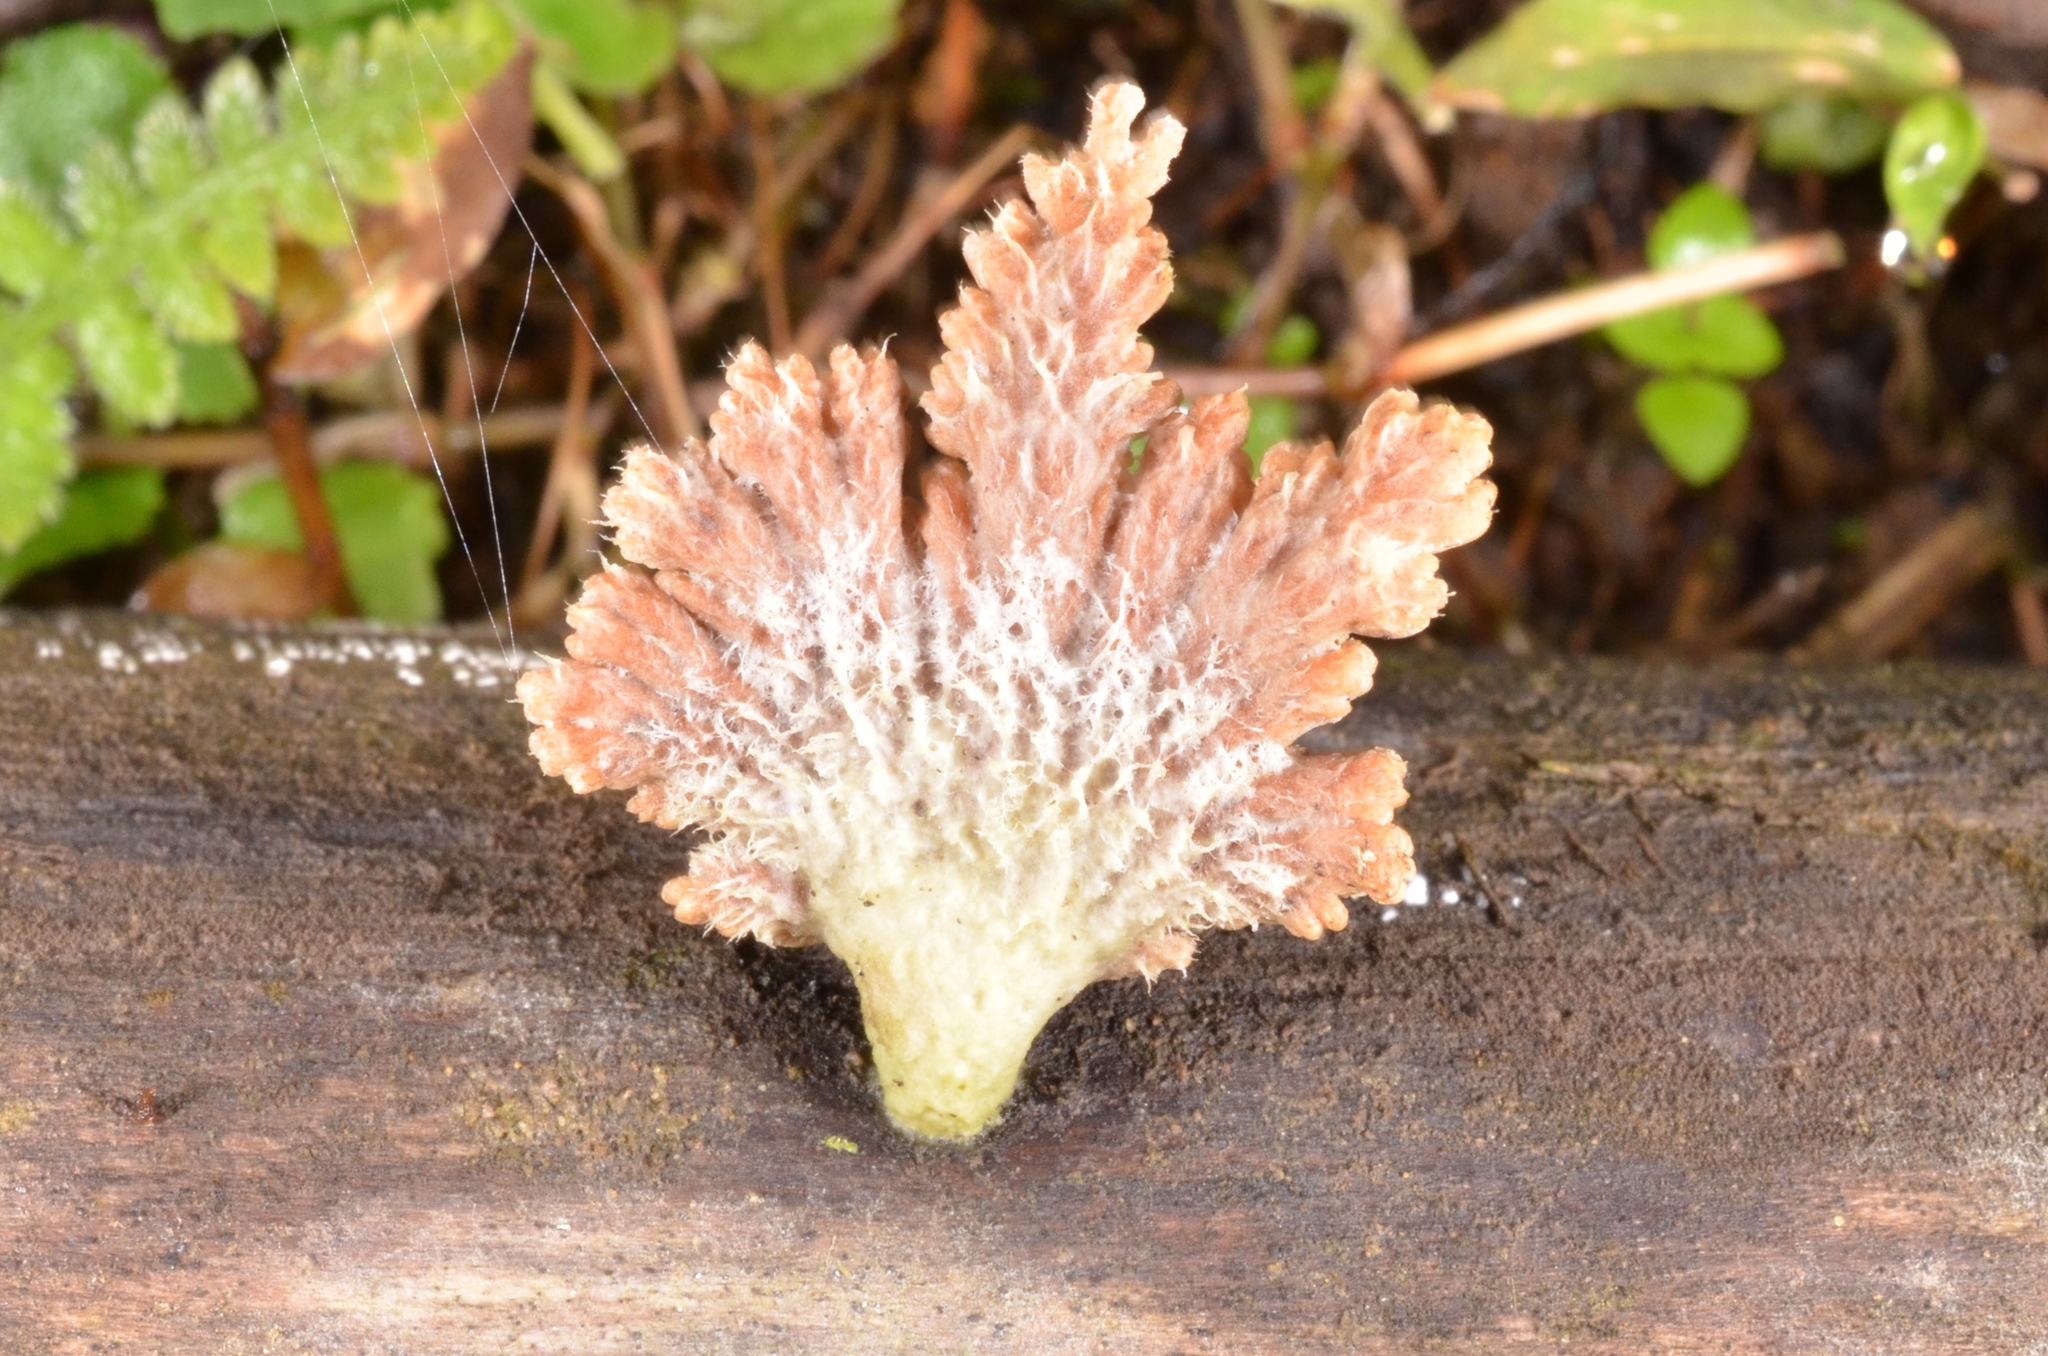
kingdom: Fungi
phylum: Basidiomycota
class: Agaricomycetes
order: Agaricales
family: Schizophyllaceae
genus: Schizophyllum
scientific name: Schizophyllum commune
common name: Common porecrust
